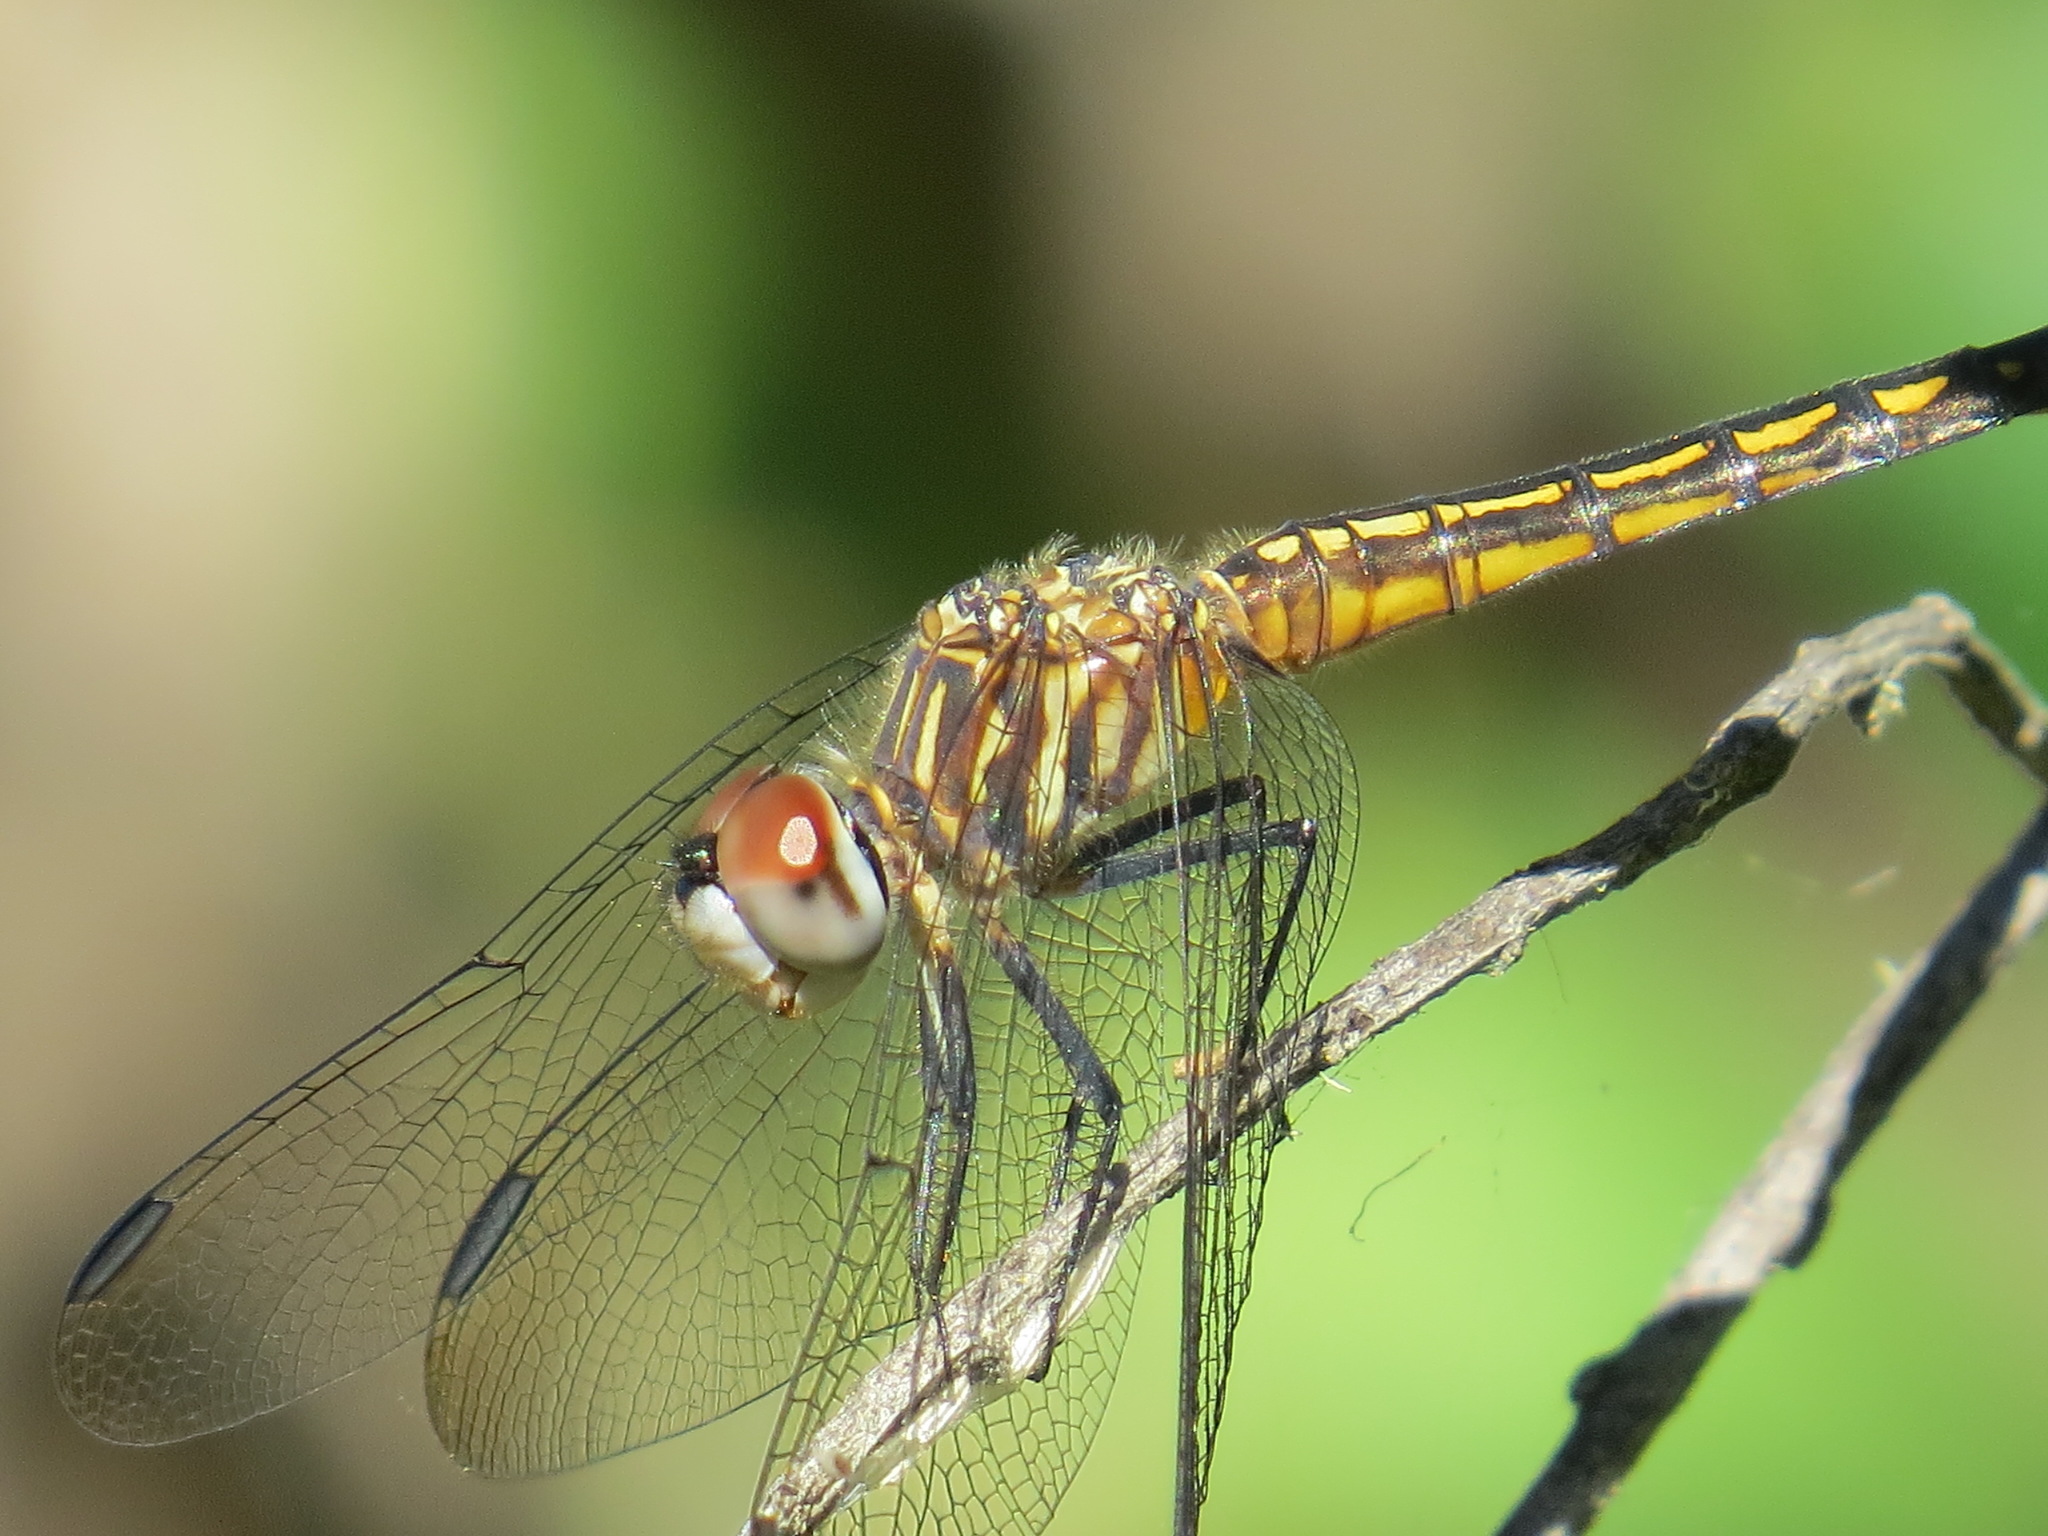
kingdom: Animalia
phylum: Arthropoda
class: Insecta
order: Odonata
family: Libellulidae
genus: Pachydiplax
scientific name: Pachydiplax longipennis
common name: Blue dasher
